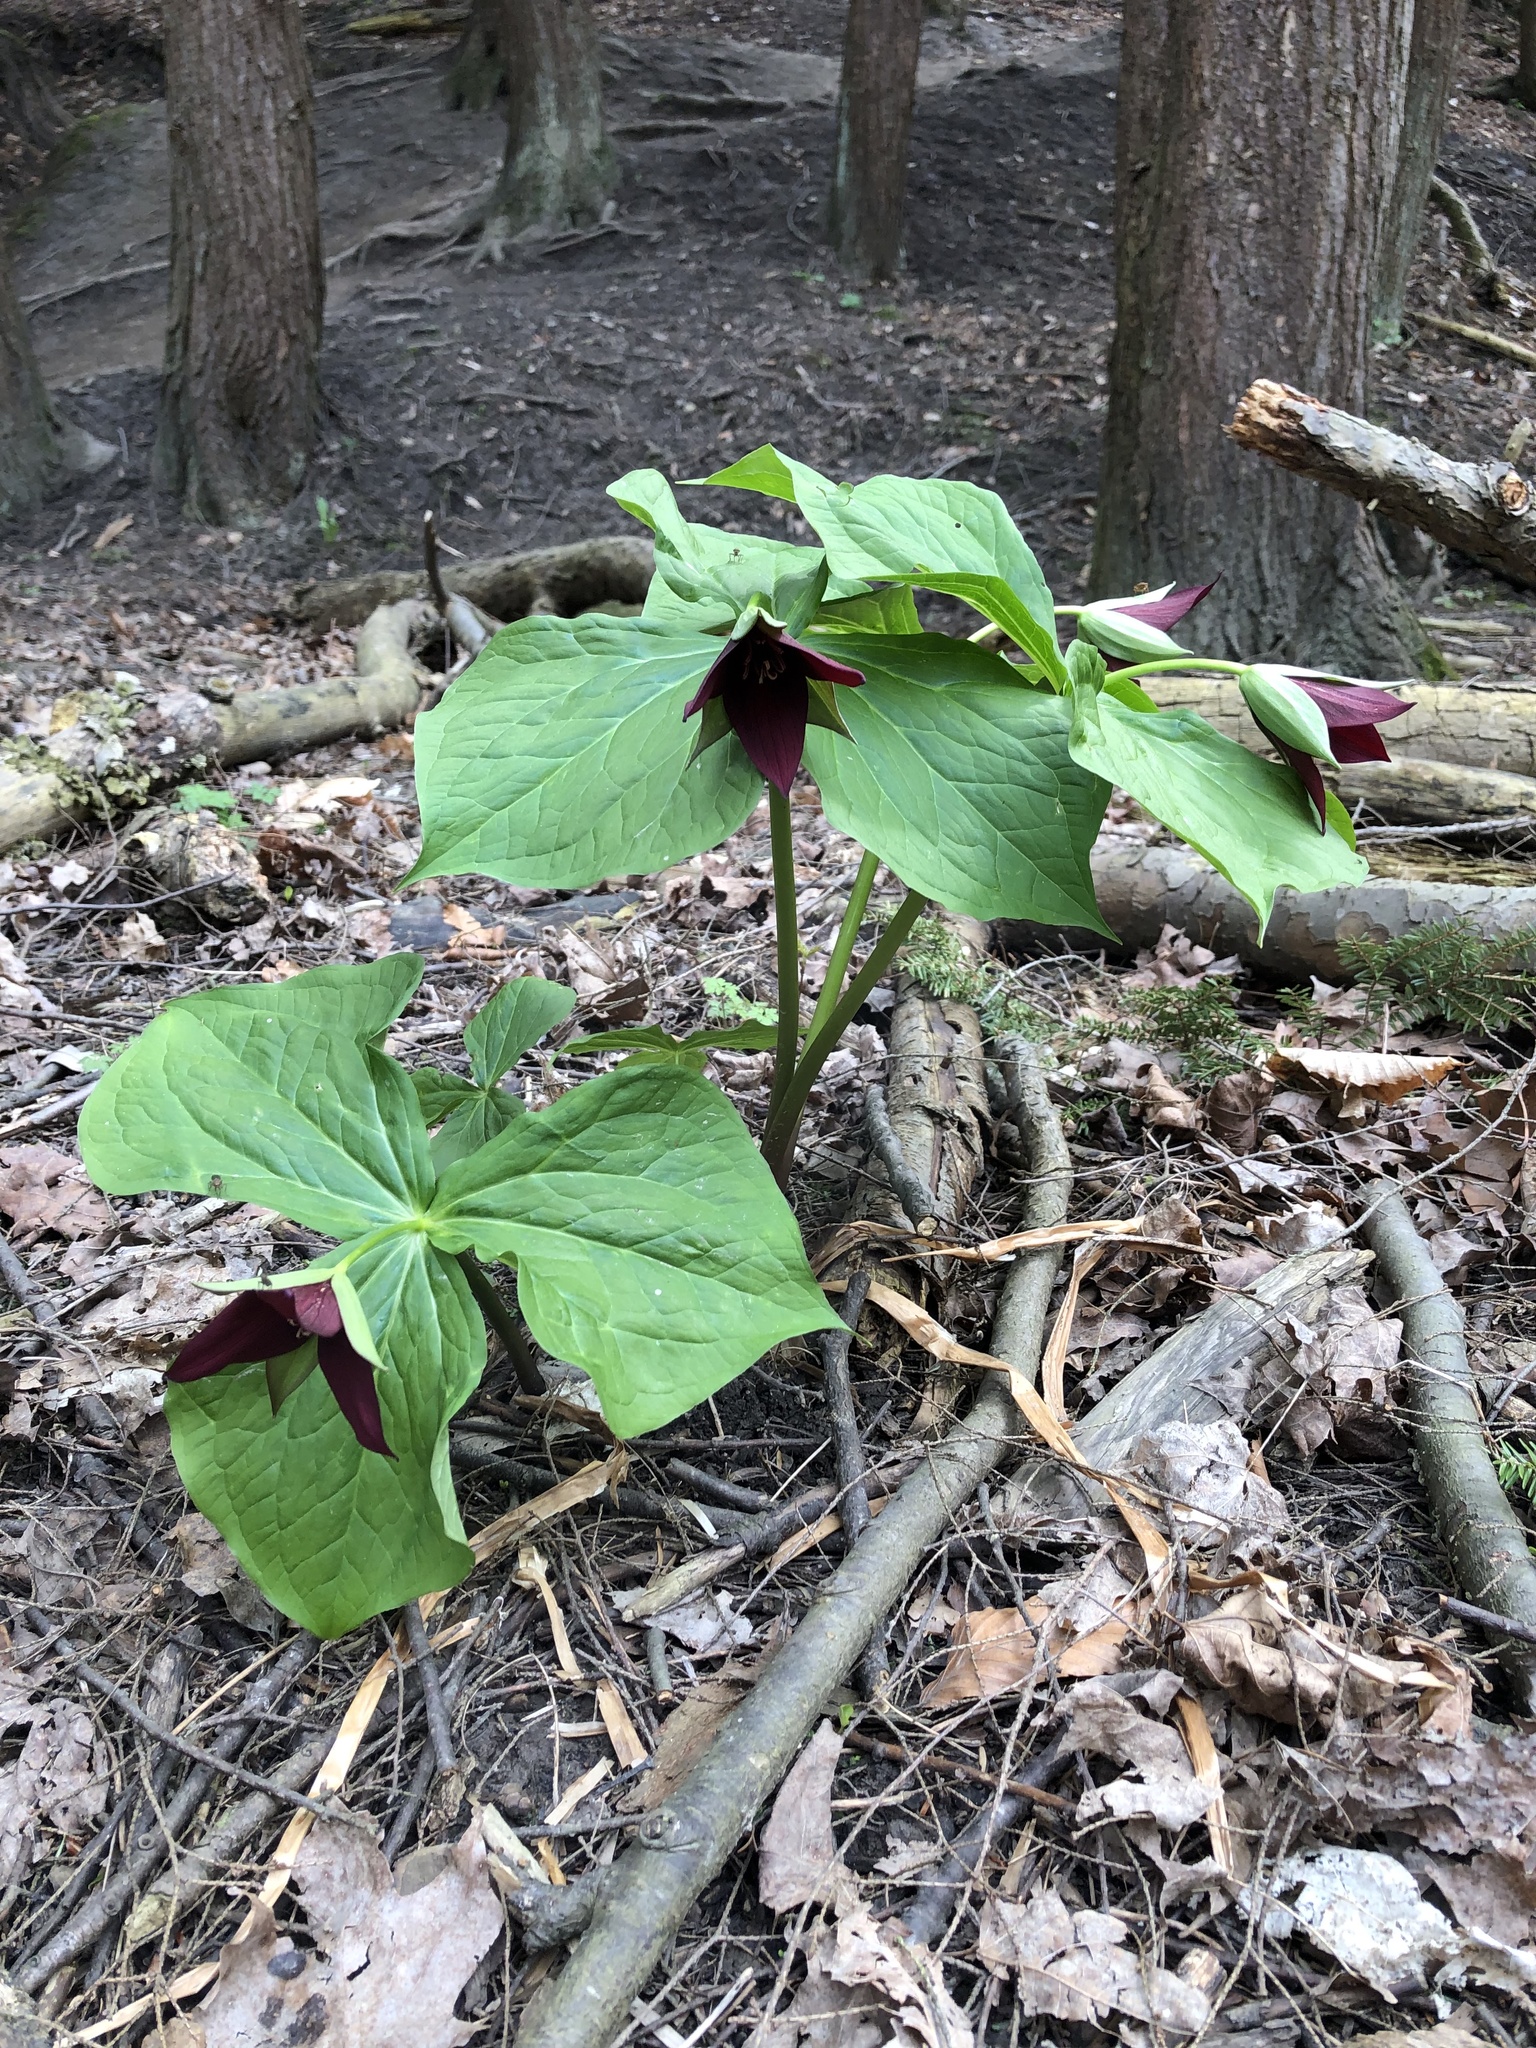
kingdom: Plantae
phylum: Tracheophyta
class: Liliopsida
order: Liliales
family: Melanthiaceae
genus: Trillium
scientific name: Trillium erectum
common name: Purple trillium
